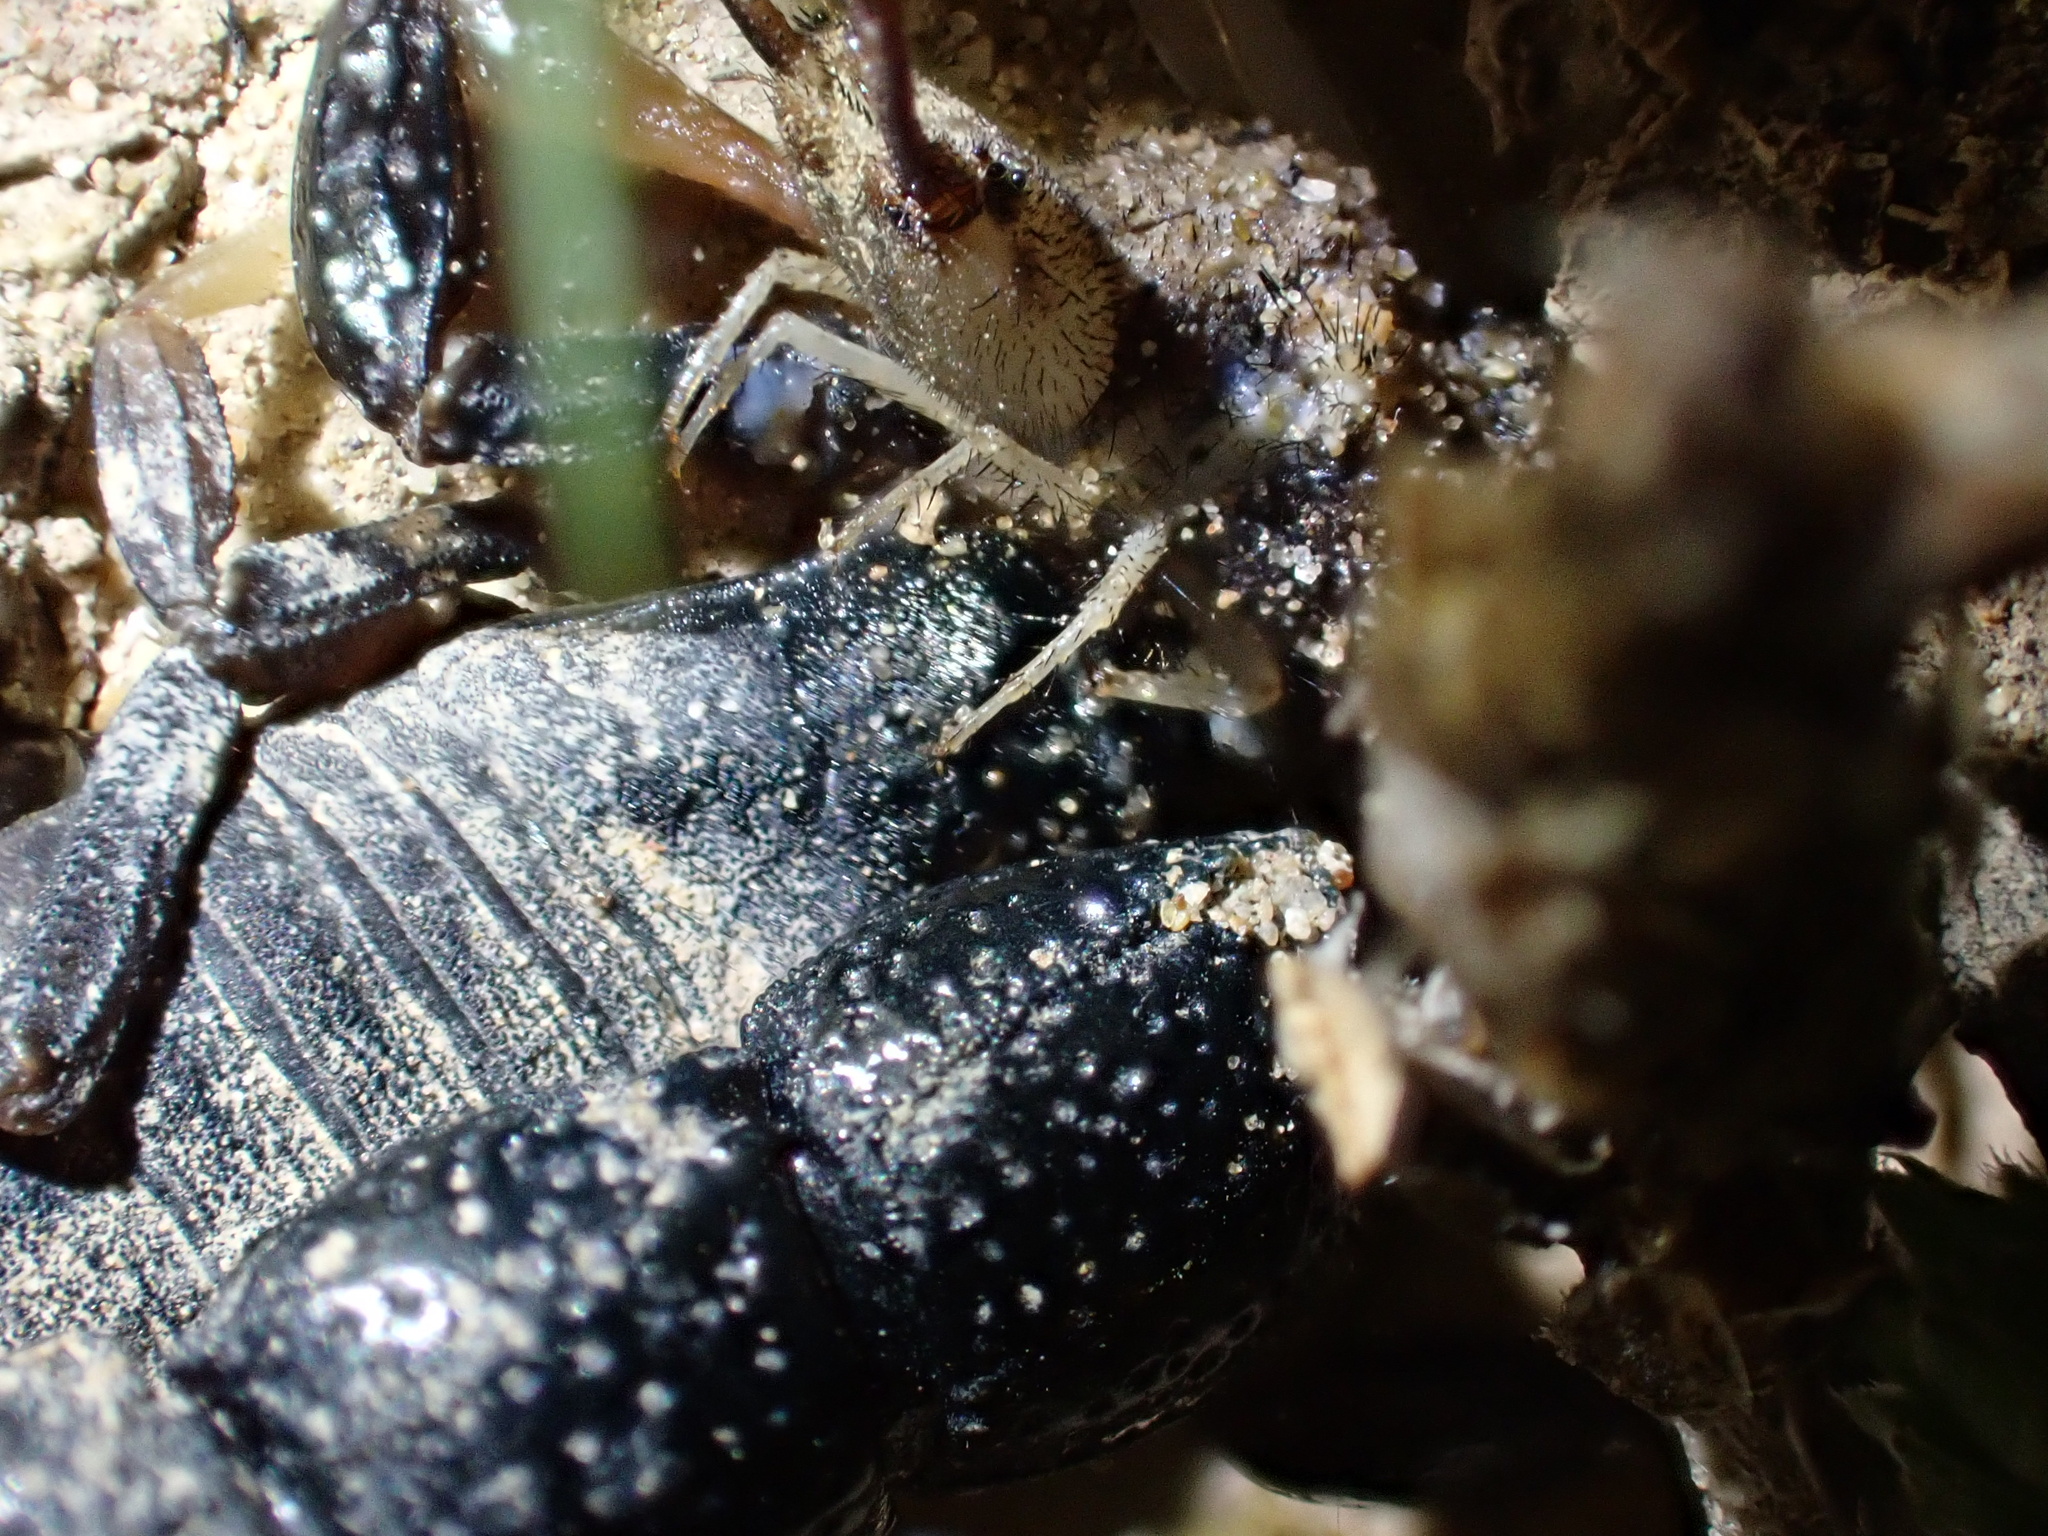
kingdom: Animalia
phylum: Arthropoda
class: Arachnida
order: Scorpiones
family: Buthidae
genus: Orthochirus
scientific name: Orthochirus mesopotamicus
